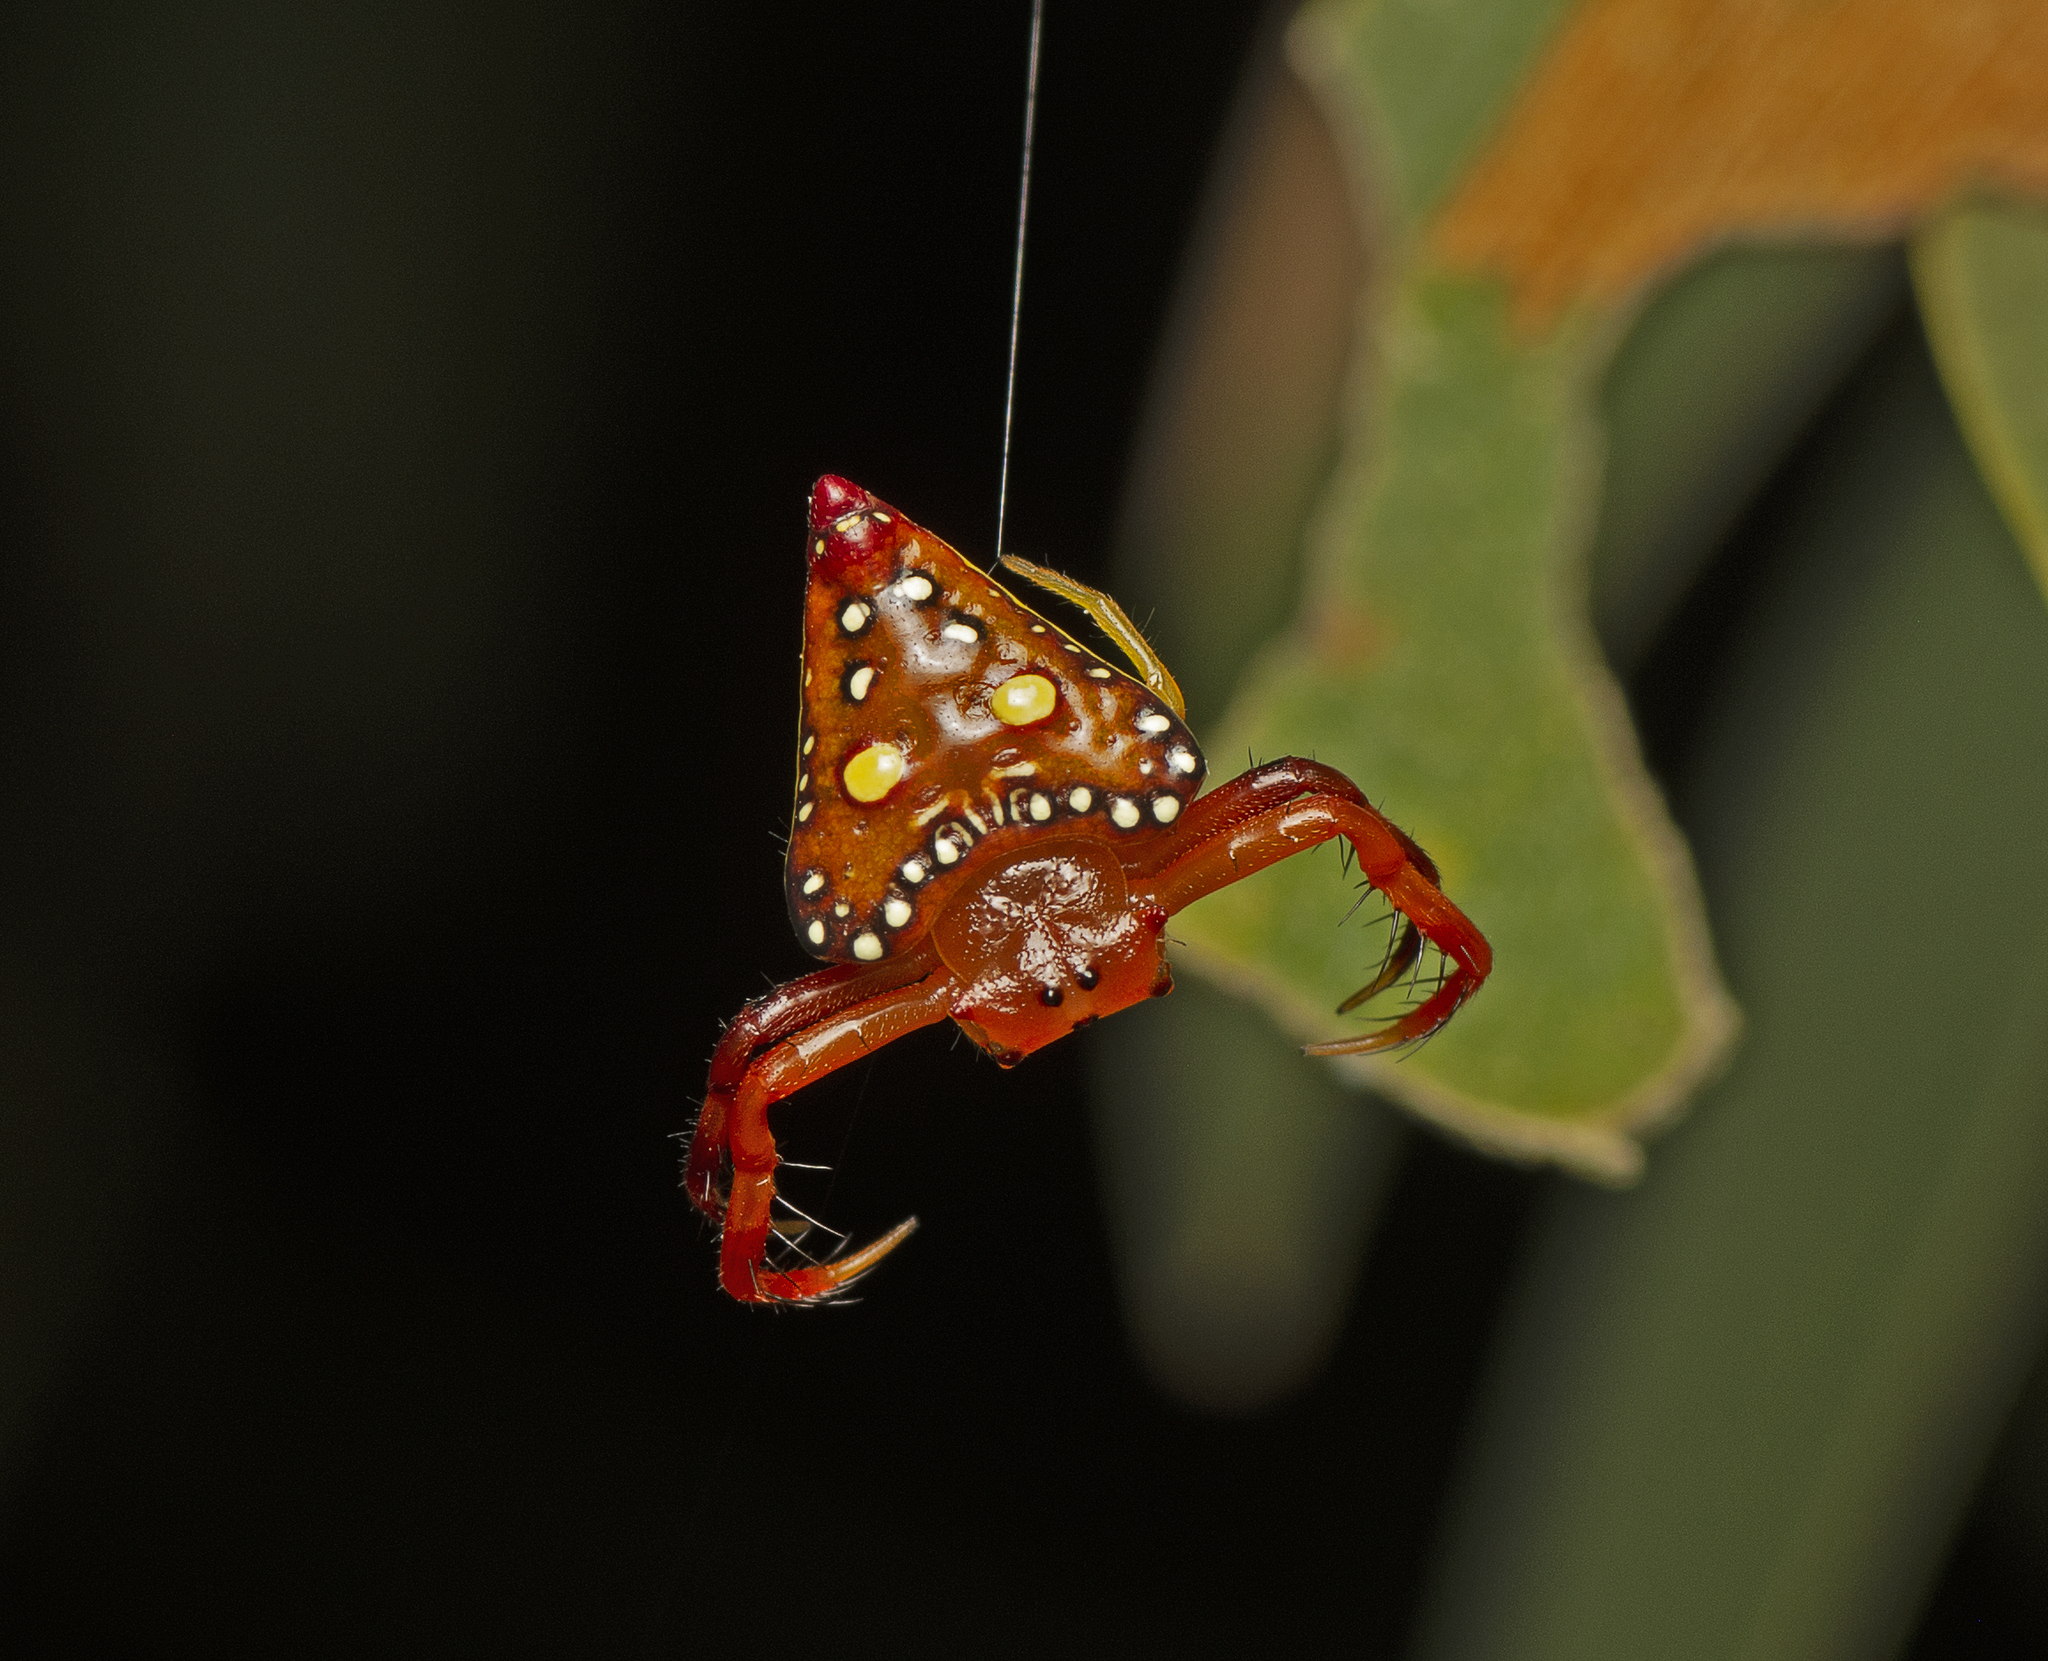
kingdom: Animalia
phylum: Arthropoda
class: Arachnida
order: Araneae
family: Arkyidae
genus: Arkys
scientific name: Arkys lancearius
